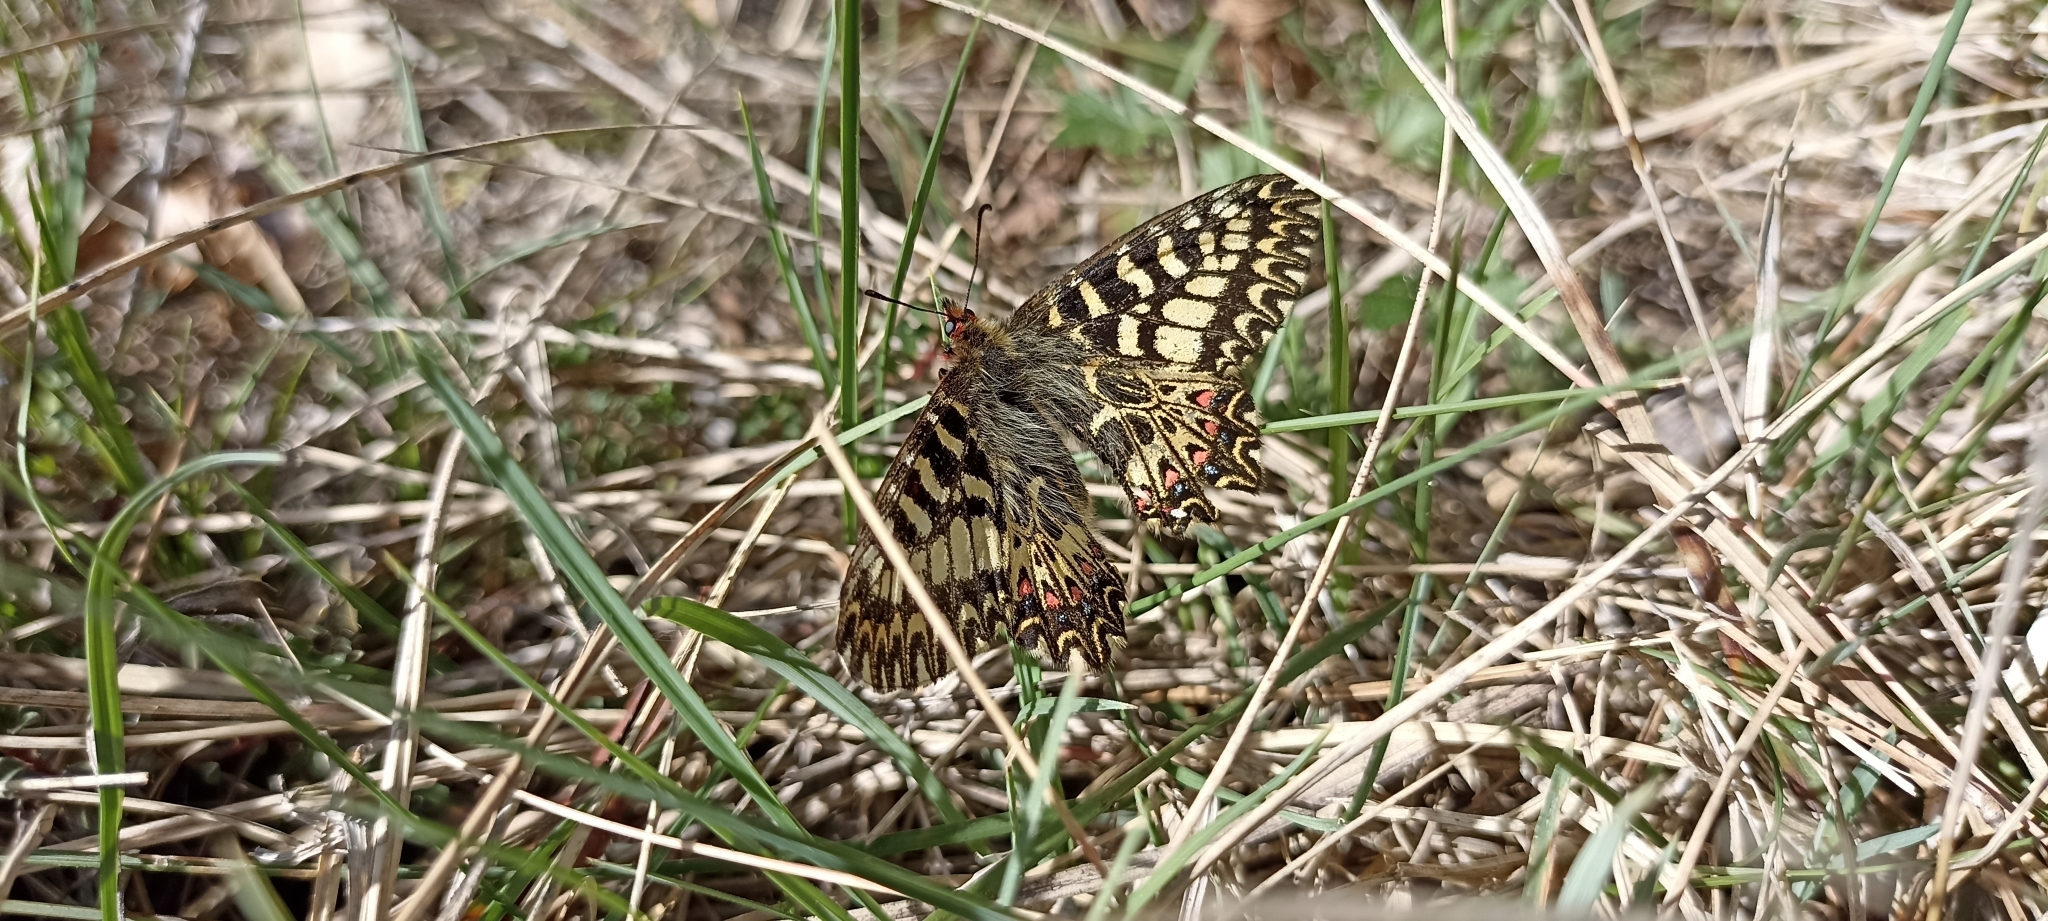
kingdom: Animalia
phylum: Arthropoda
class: Insecta
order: Lepidoptera
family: Papilionidae
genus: Zerynthia
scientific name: Zerynthia polyxena
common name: Southern festoon
